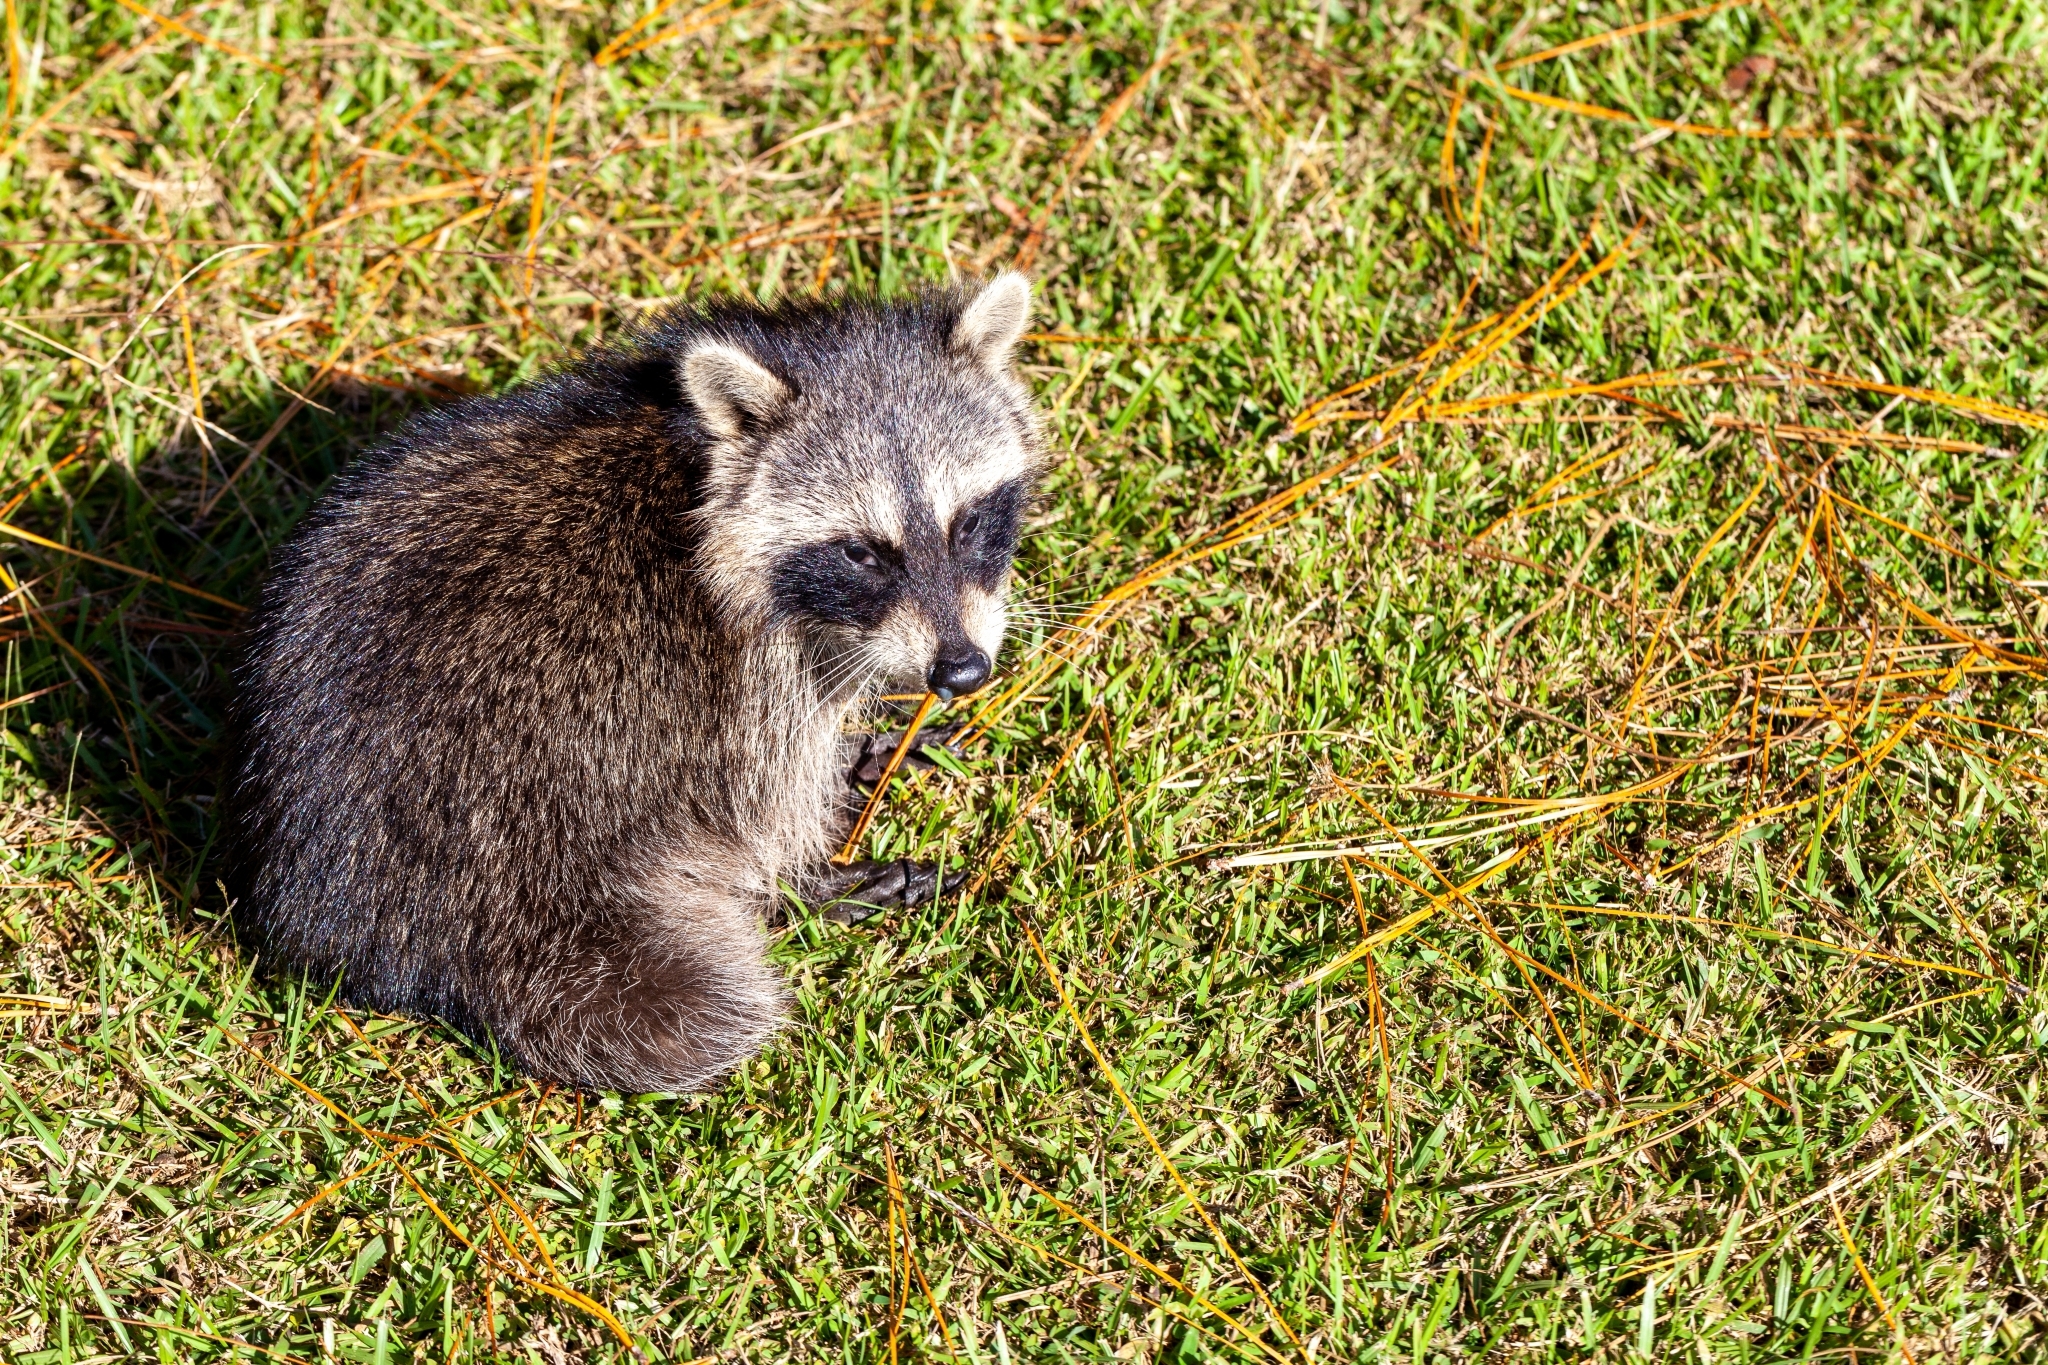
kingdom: Animalia
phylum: Chordata
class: Mammalia
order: Carnivora
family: Procyonidae
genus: Procyon
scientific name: Procyon lotor
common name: Raccoon
